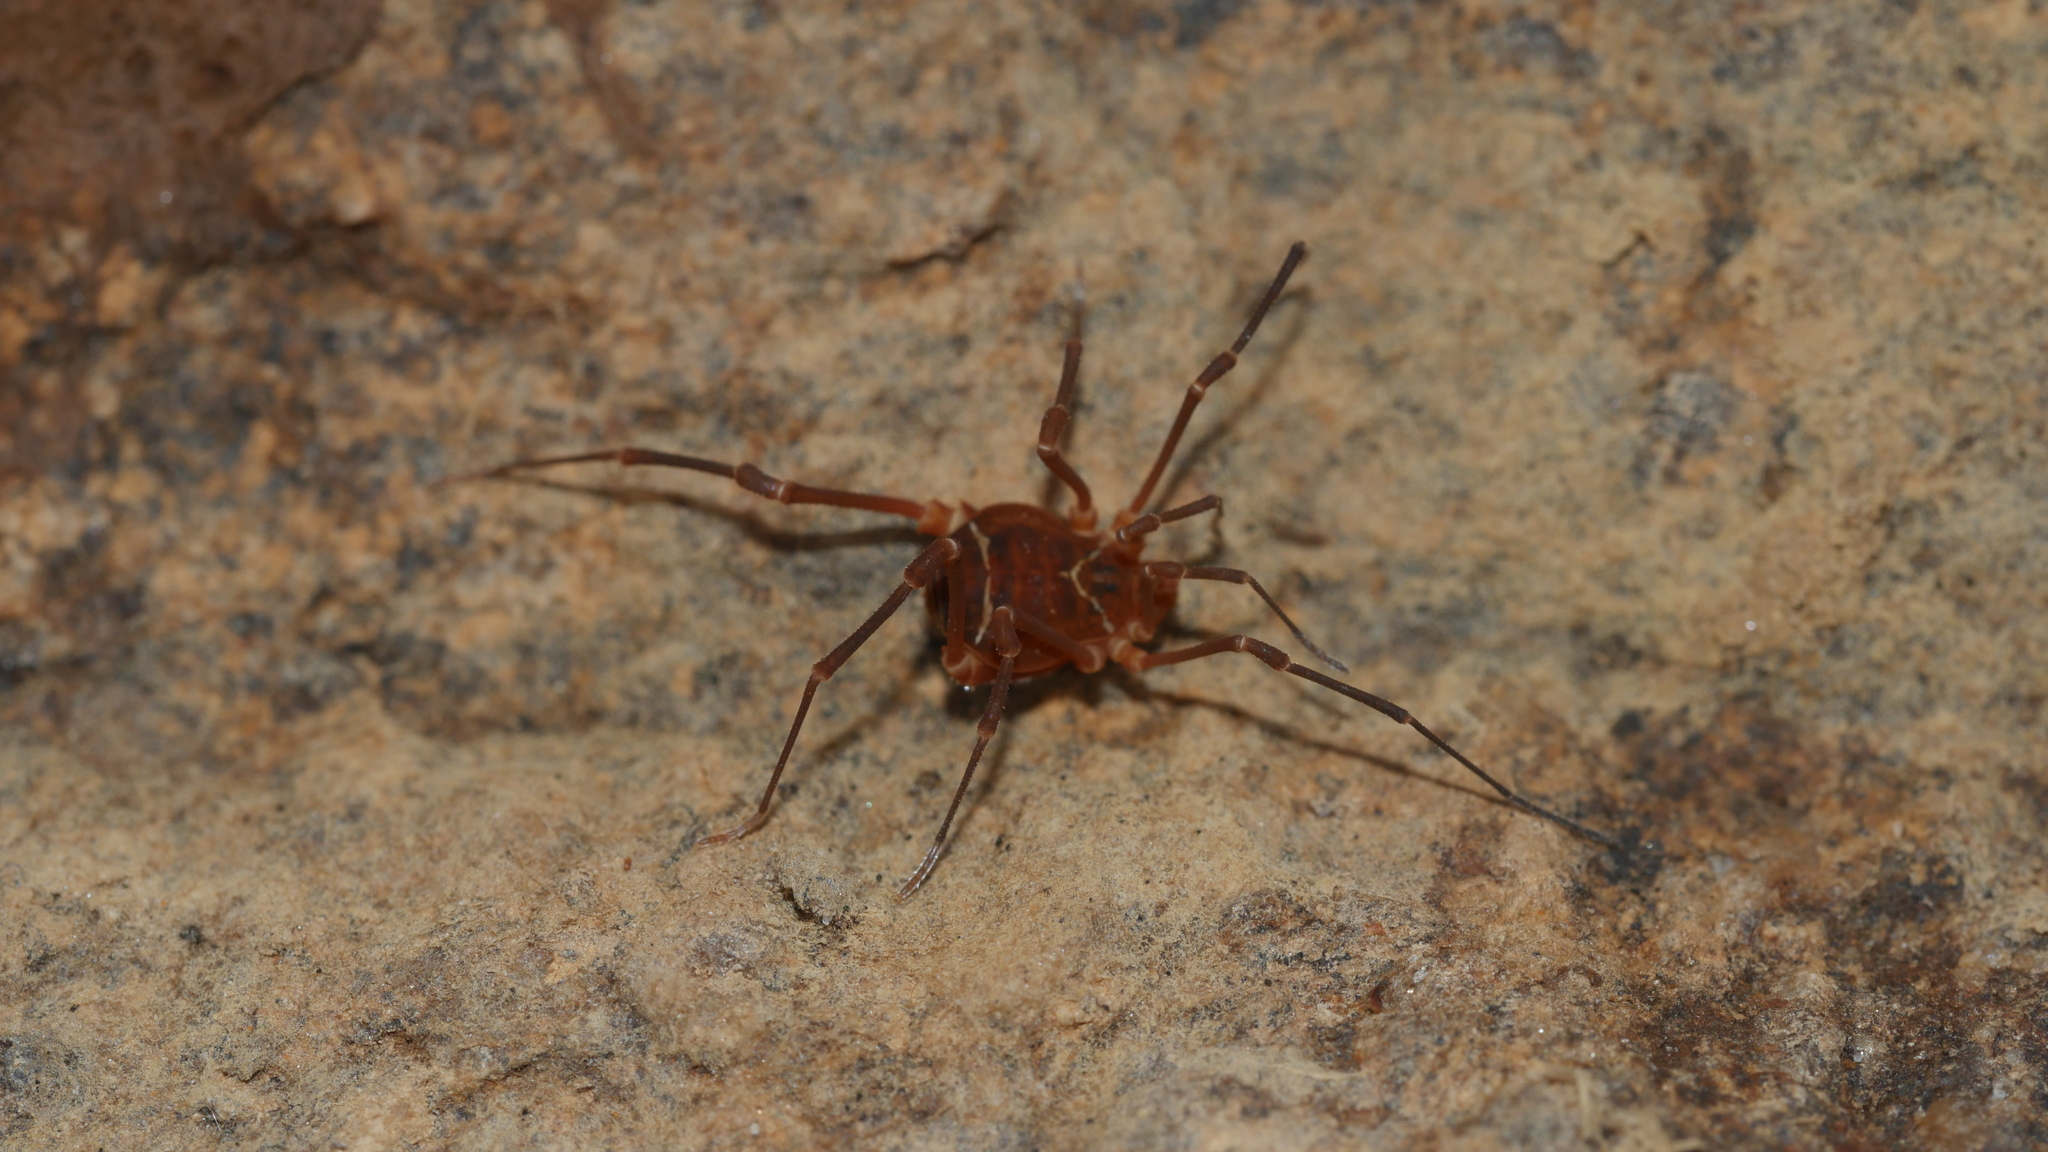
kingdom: Animalia
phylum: Arthropoda
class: Arachnida
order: Opiliones
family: Cosmetidae
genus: Libitioides
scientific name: Libitioides sayi
